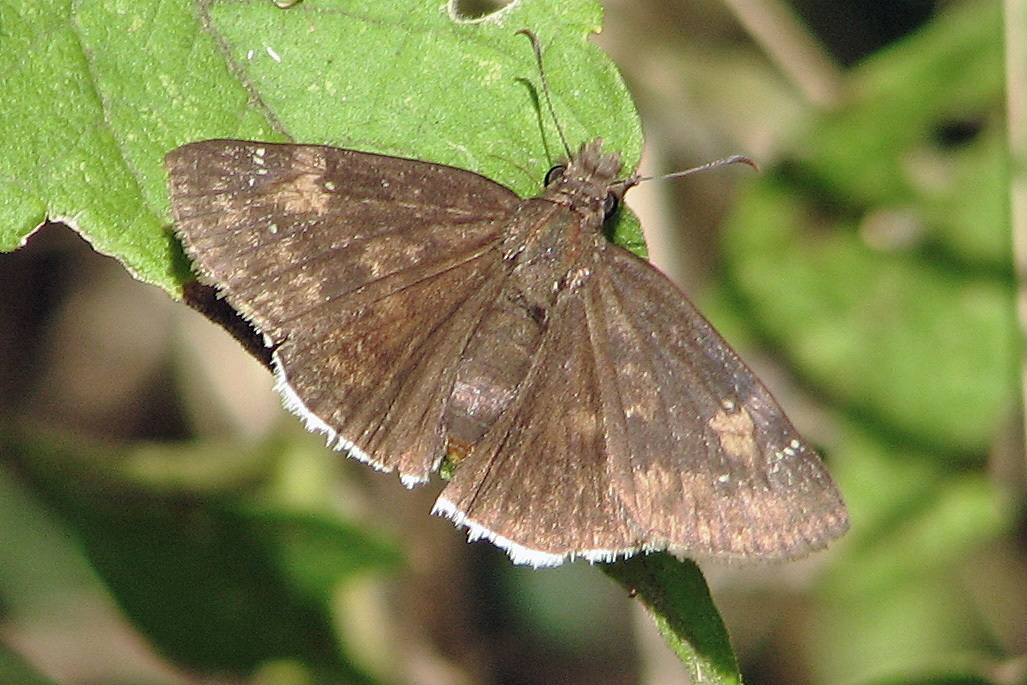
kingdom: Animalia
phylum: Arthropoda
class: Insecta
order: Lepidoptera
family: Hesperiidae
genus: Erynnis
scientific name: Erynnis funeralis
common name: Funereal duskywing
